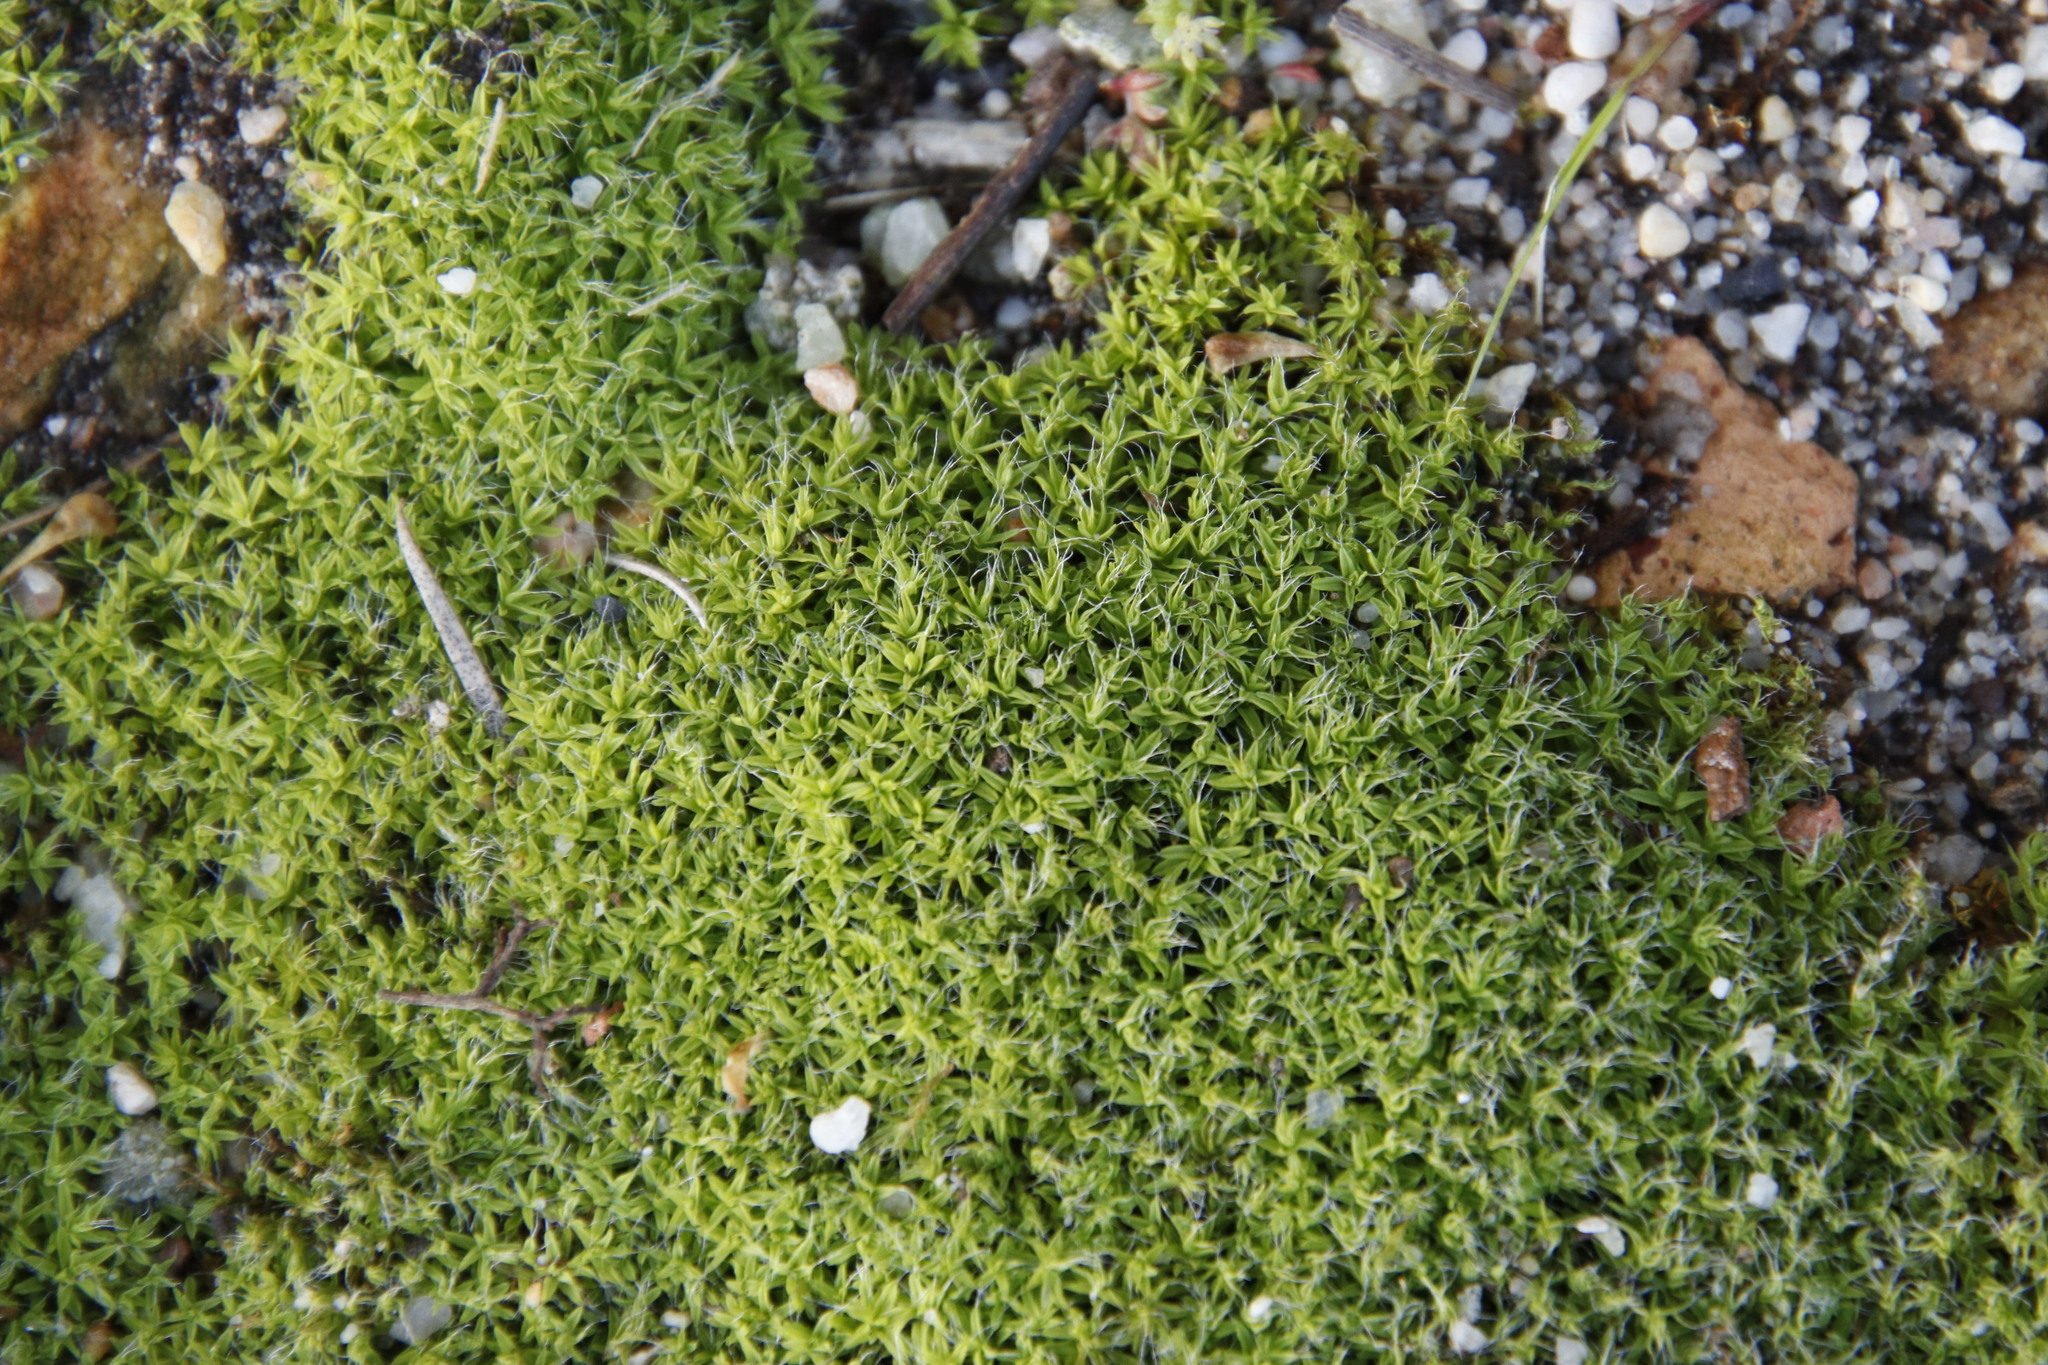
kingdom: Plantae
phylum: Bryophyta
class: Bryopsida
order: Pottiales
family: Pottiaceae
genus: Pseudocrossidium
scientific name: Pseudocrossidium crinitum
